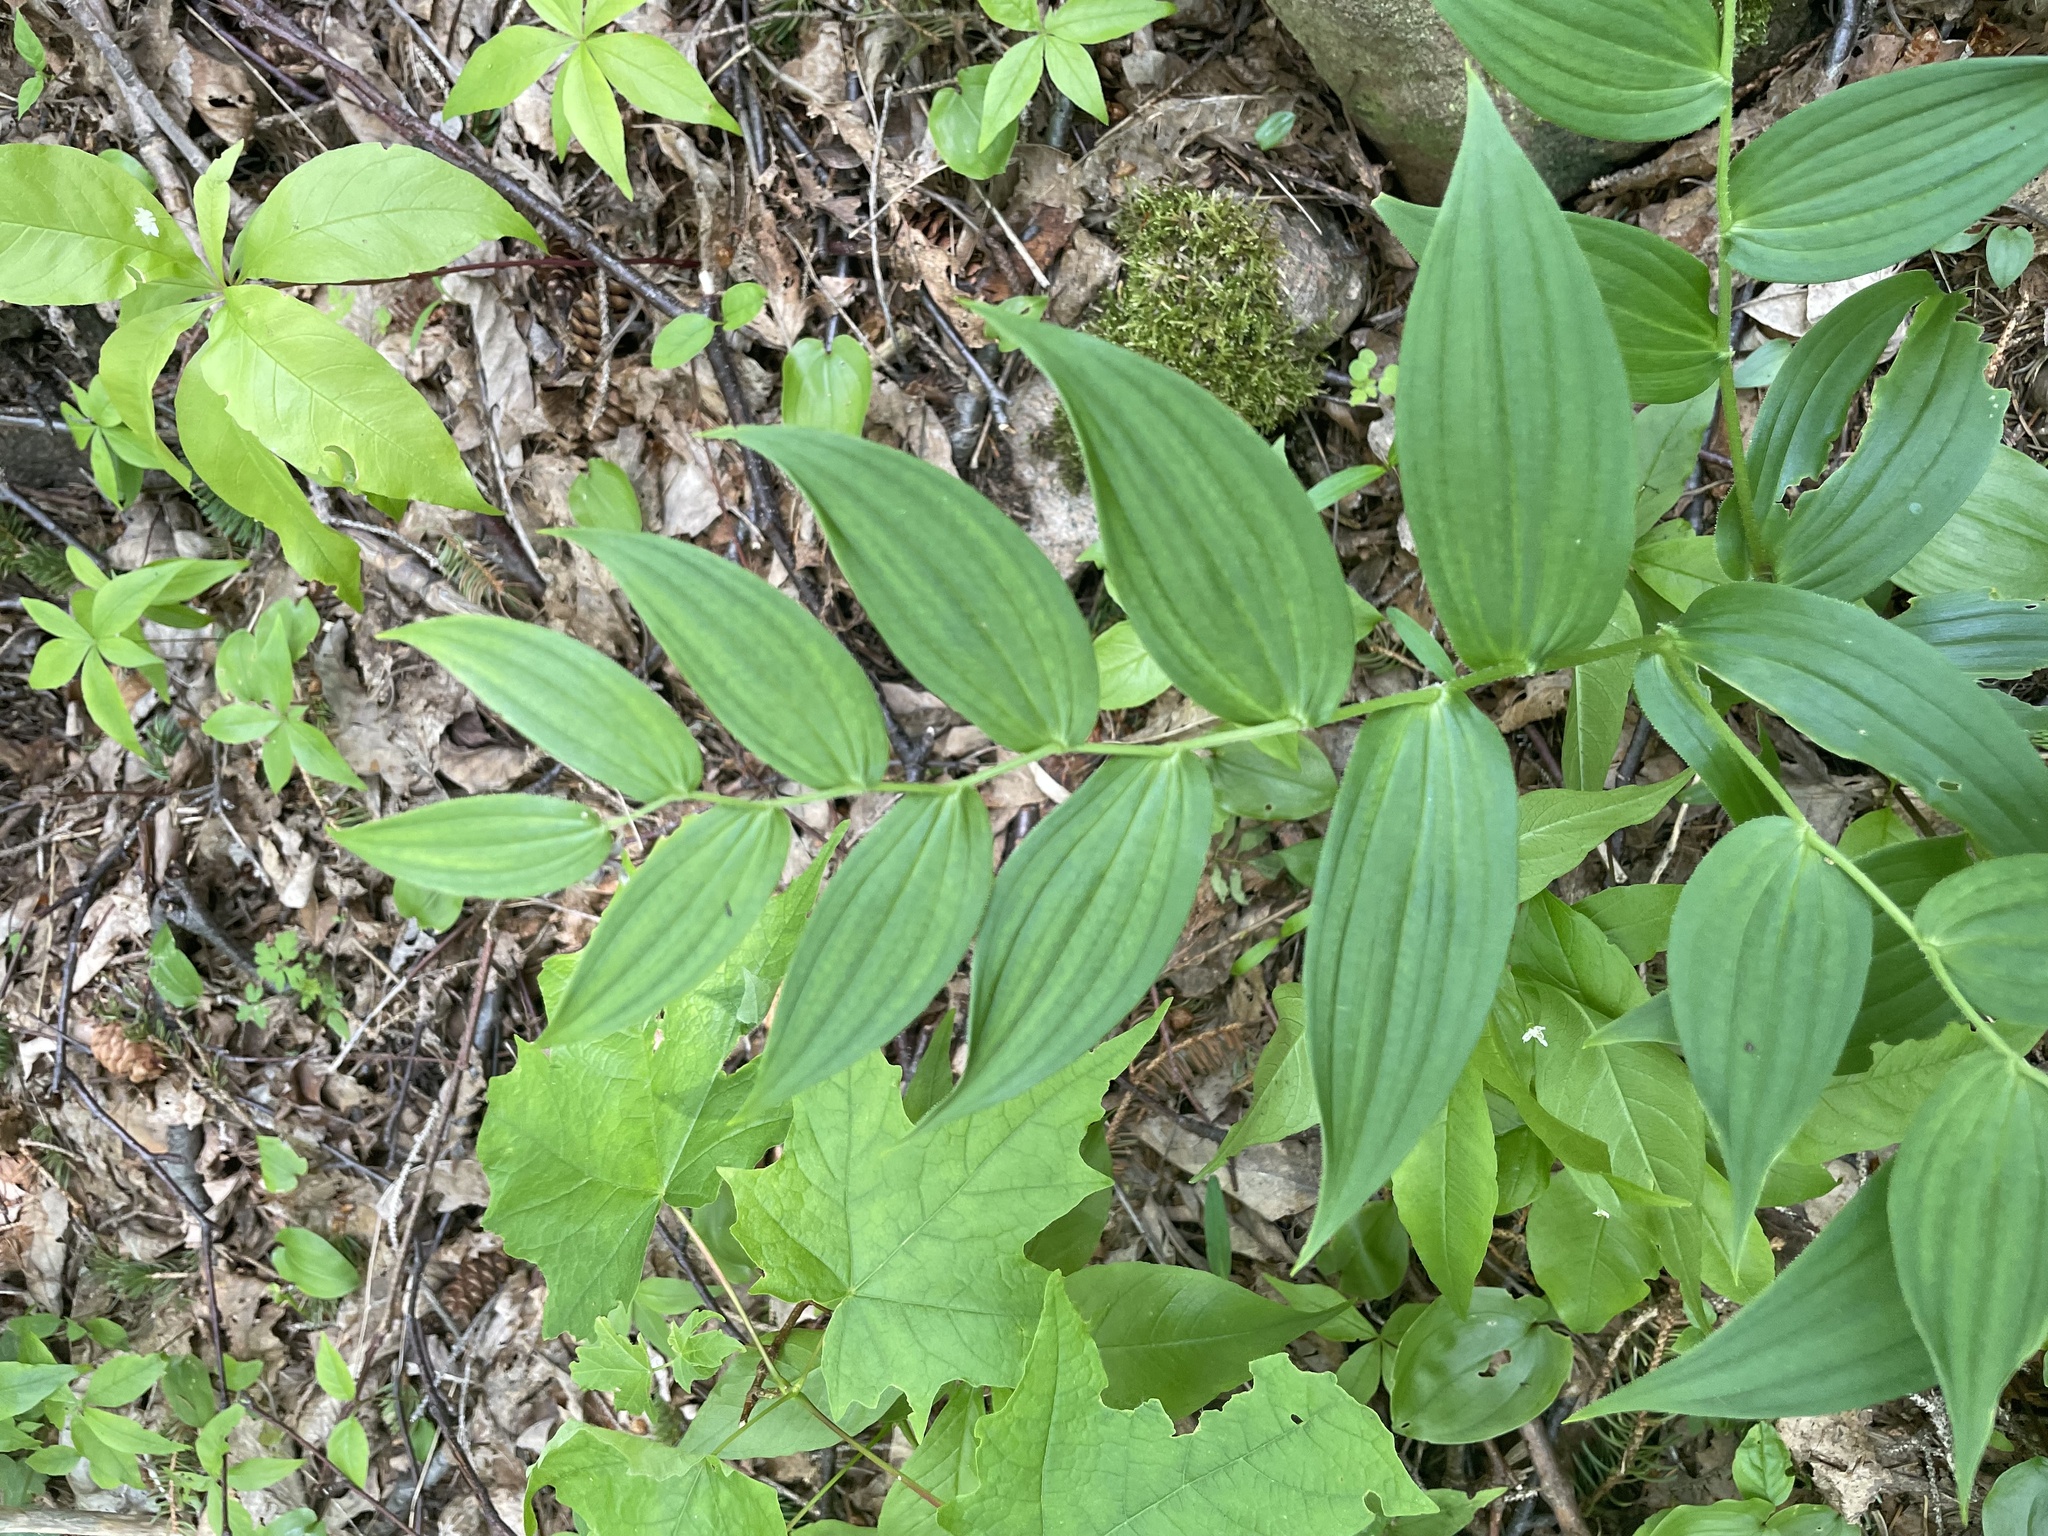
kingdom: Plantae
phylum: Tracheophyta
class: Liliopsida
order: Liliales
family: Liliaceae
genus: Streptopus
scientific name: Streptopus lanceolatus
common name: Rose mandarin
